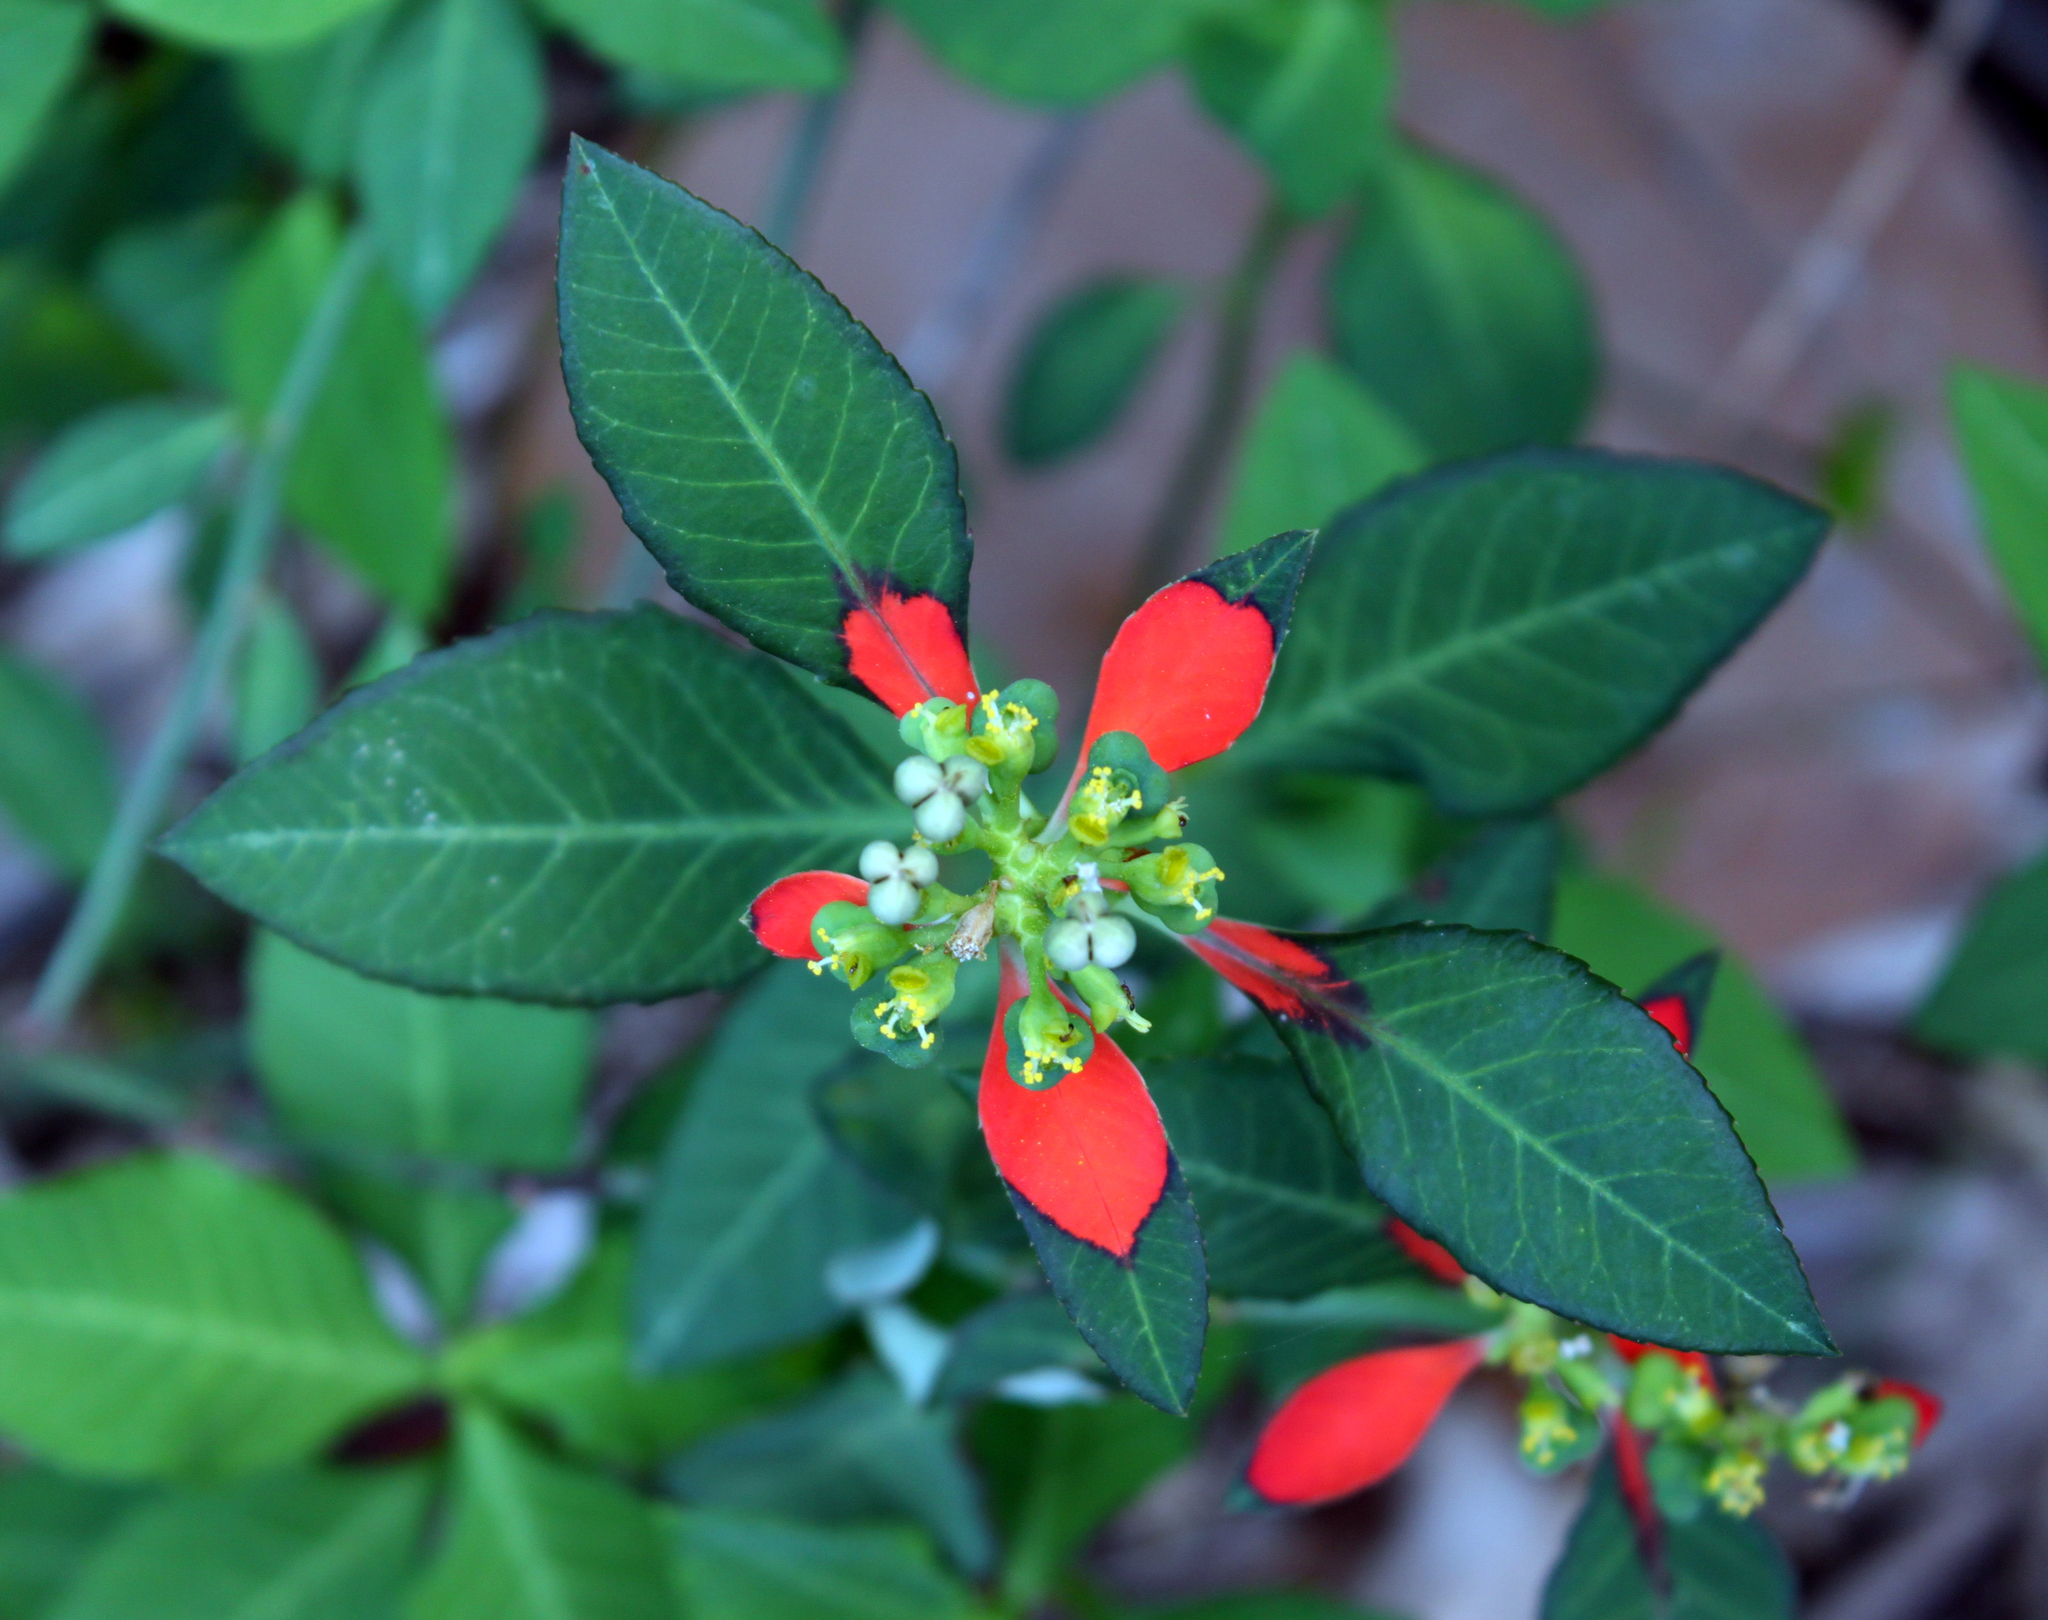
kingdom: Plantae
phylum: Tracheophyta
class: Magnoliopsida
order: Malpighiales
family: Euphorbiaceae
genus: Euphorbia
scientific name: Euphorbia heterophylla
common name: Mexican fireplant
